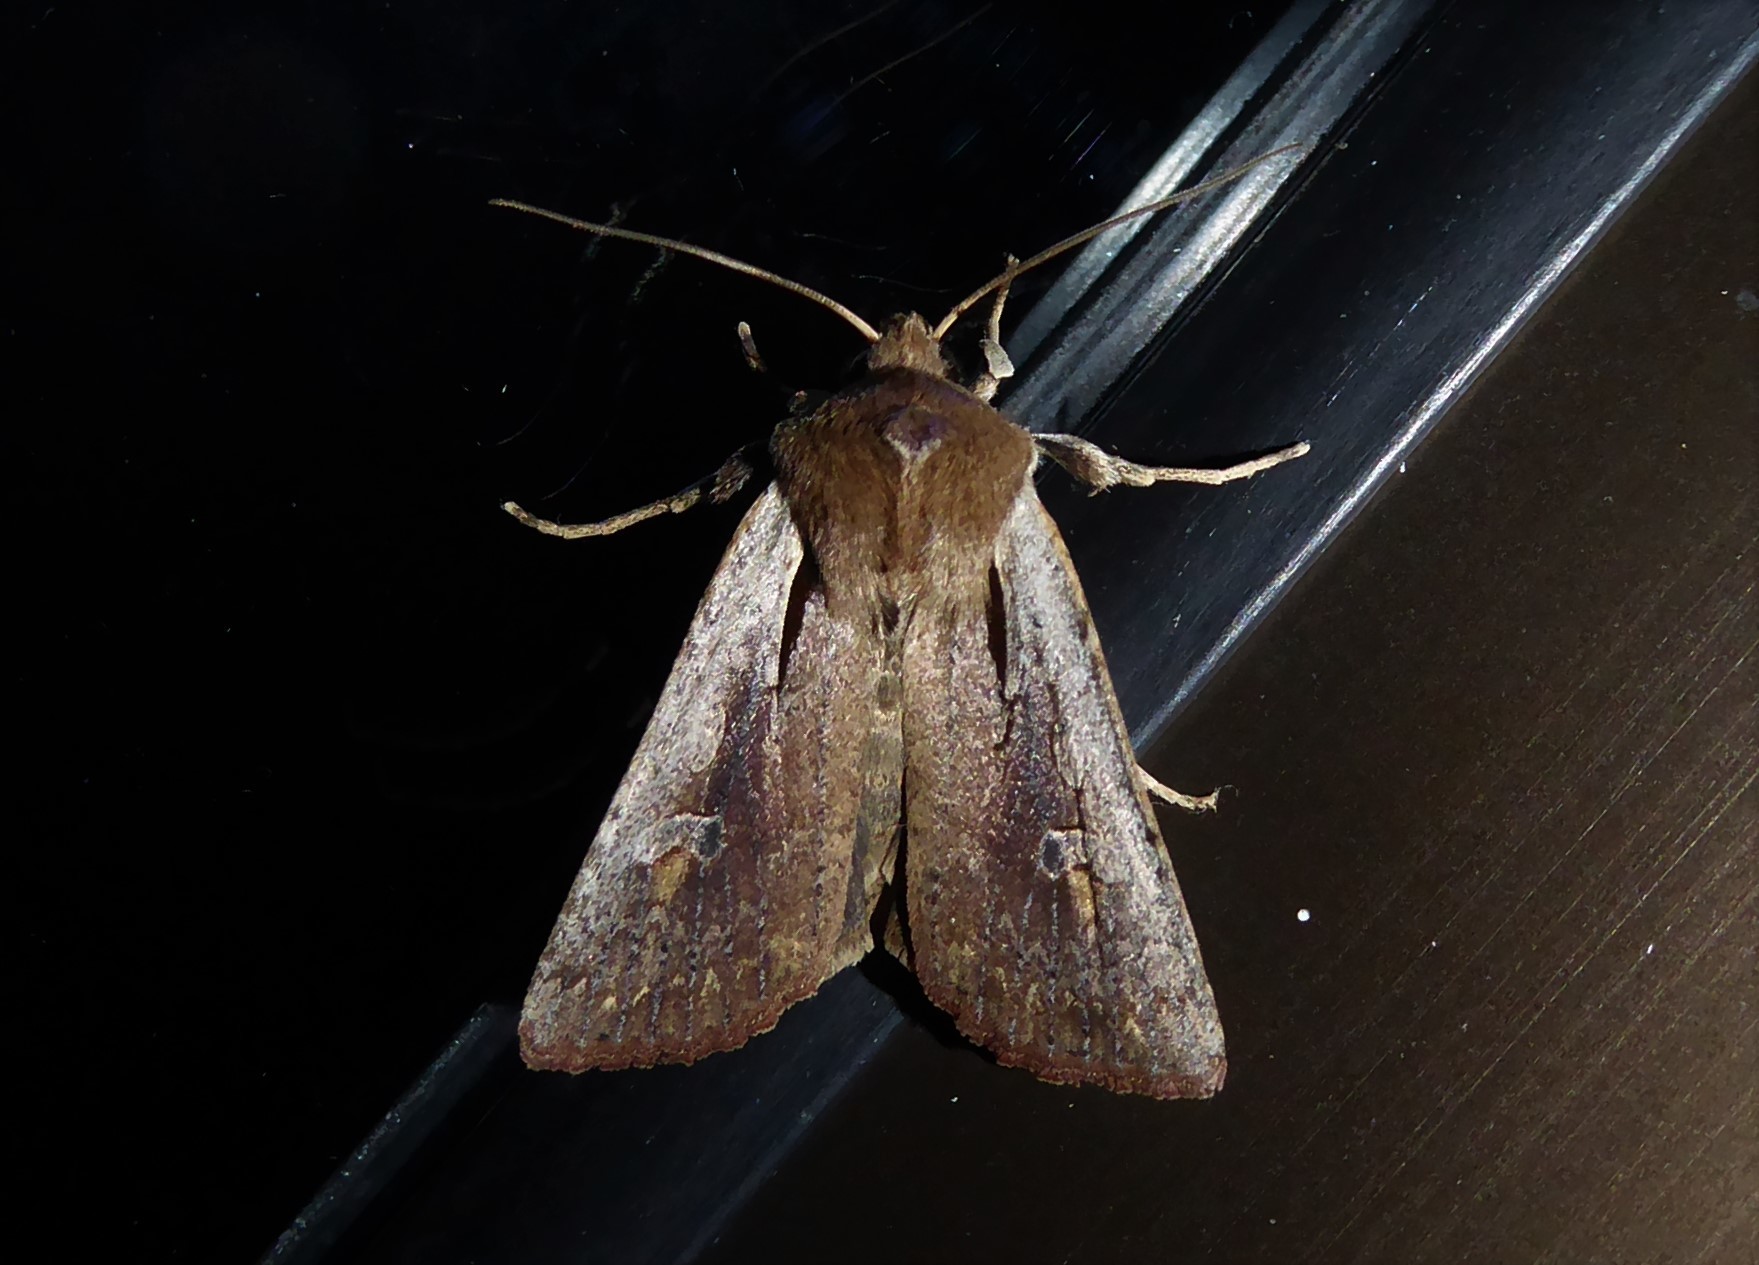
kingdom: Animalia
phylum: Arthropoda
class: Insecta
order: Lepidoptera
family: Noctuidae
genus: Ichneutica
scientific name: Ichneutica atristriga
